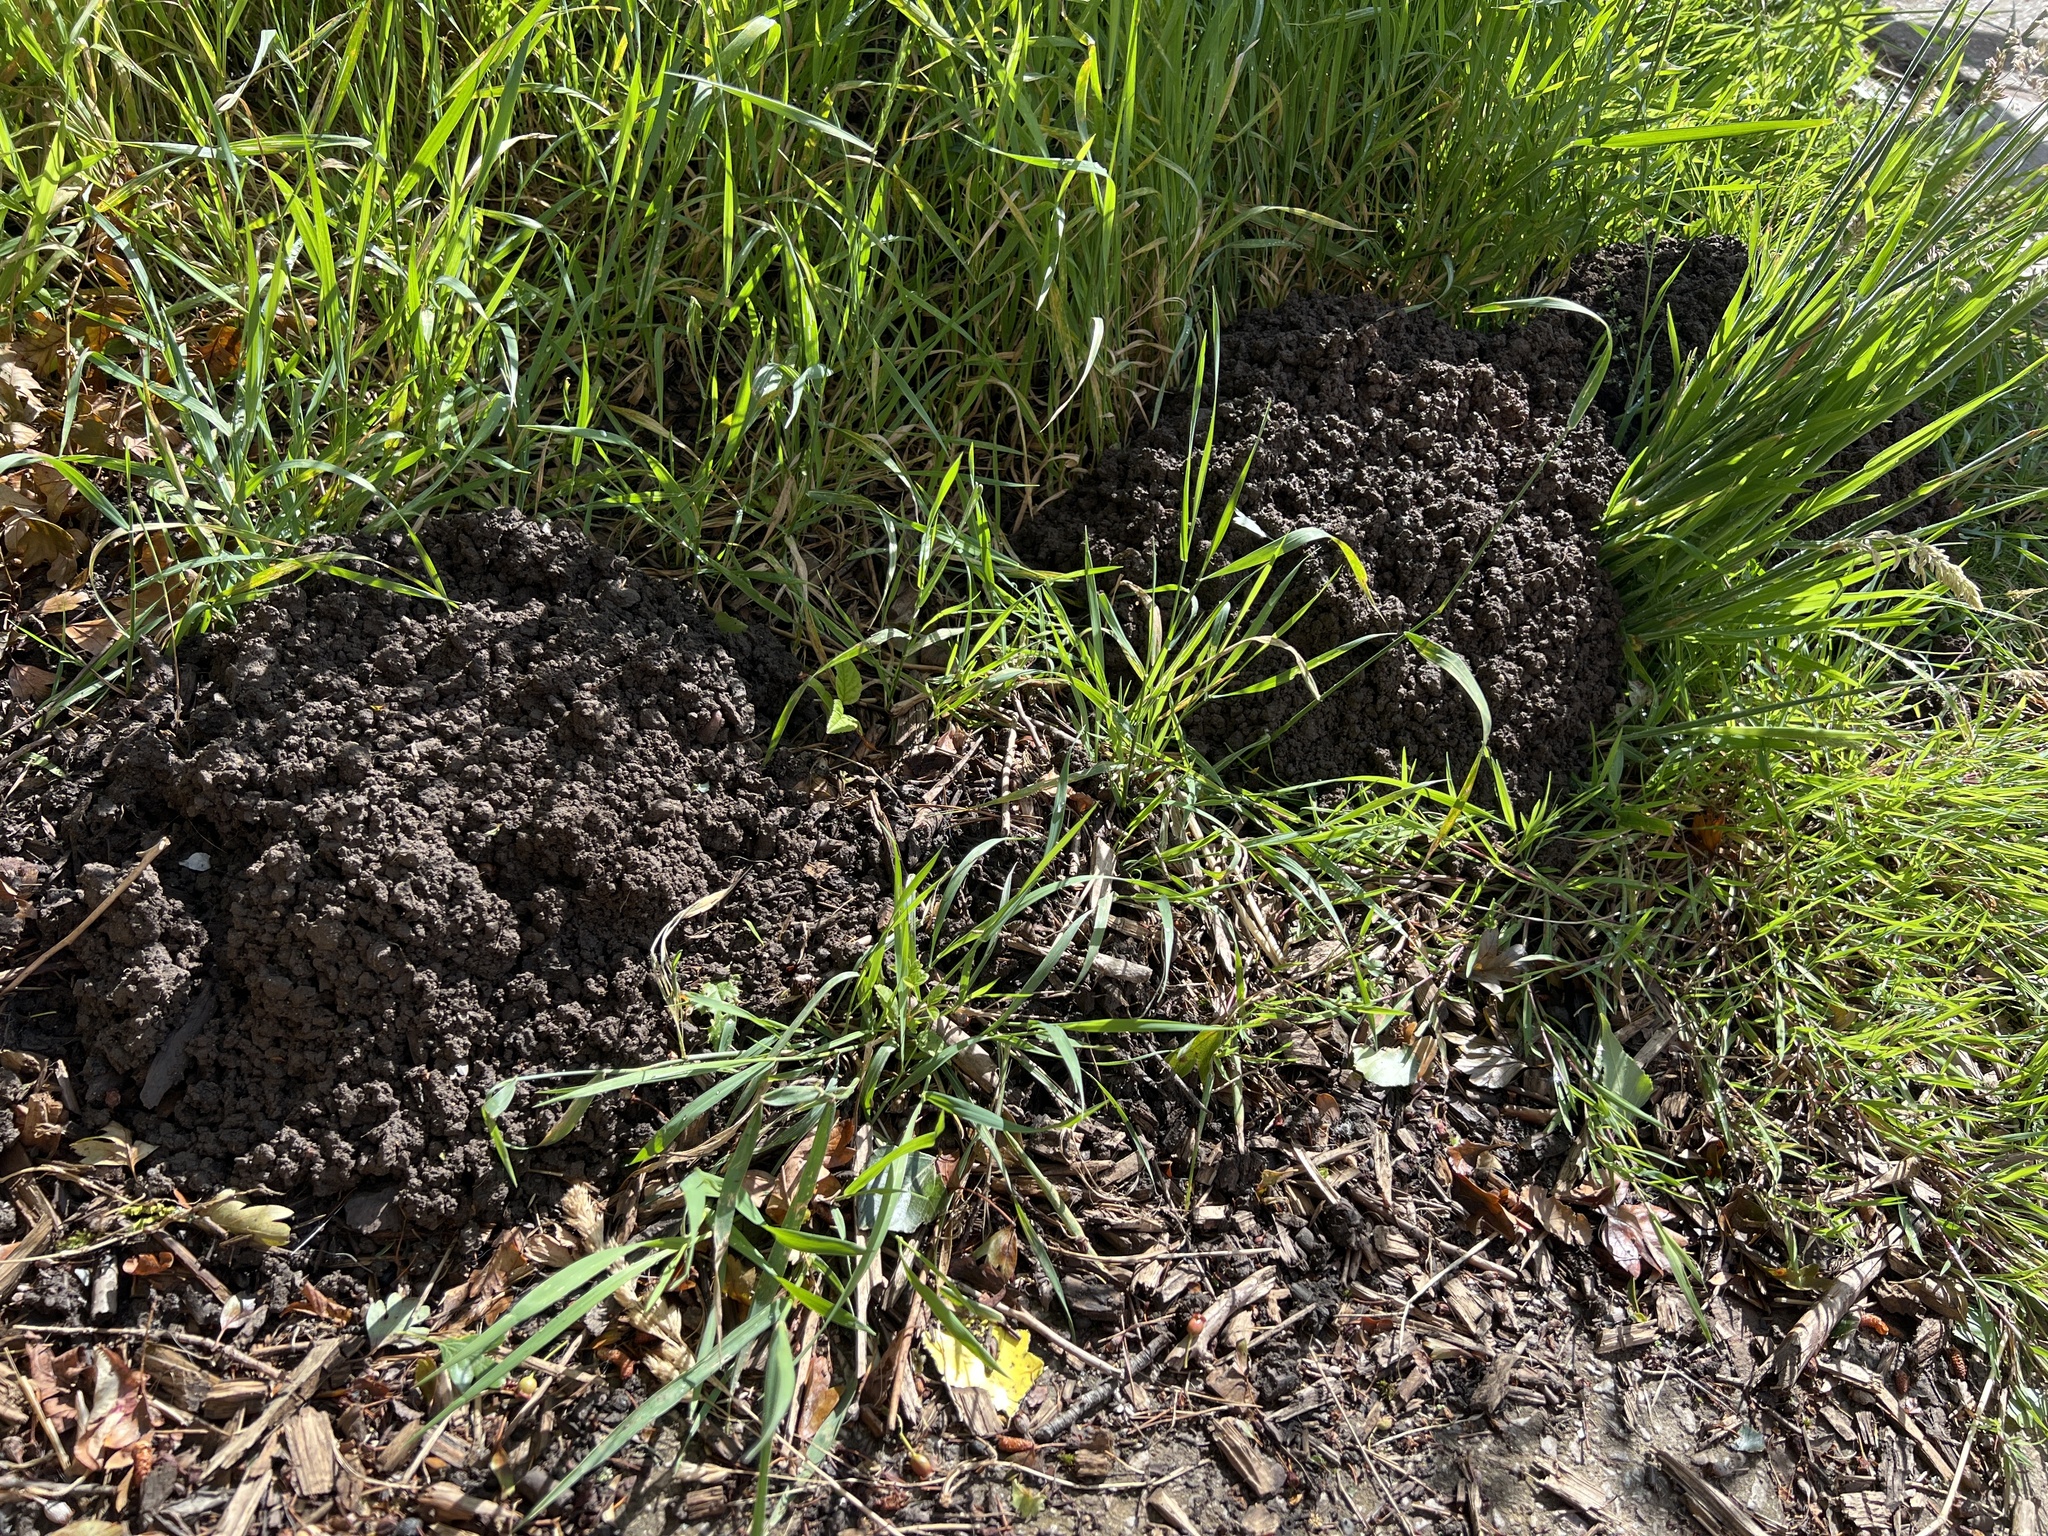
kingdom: Animalia
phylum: Chordata
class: Mammalia
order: Soricomorpha
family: Talpidae
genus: Talpa
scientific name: Talpa europaea
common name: European mole
